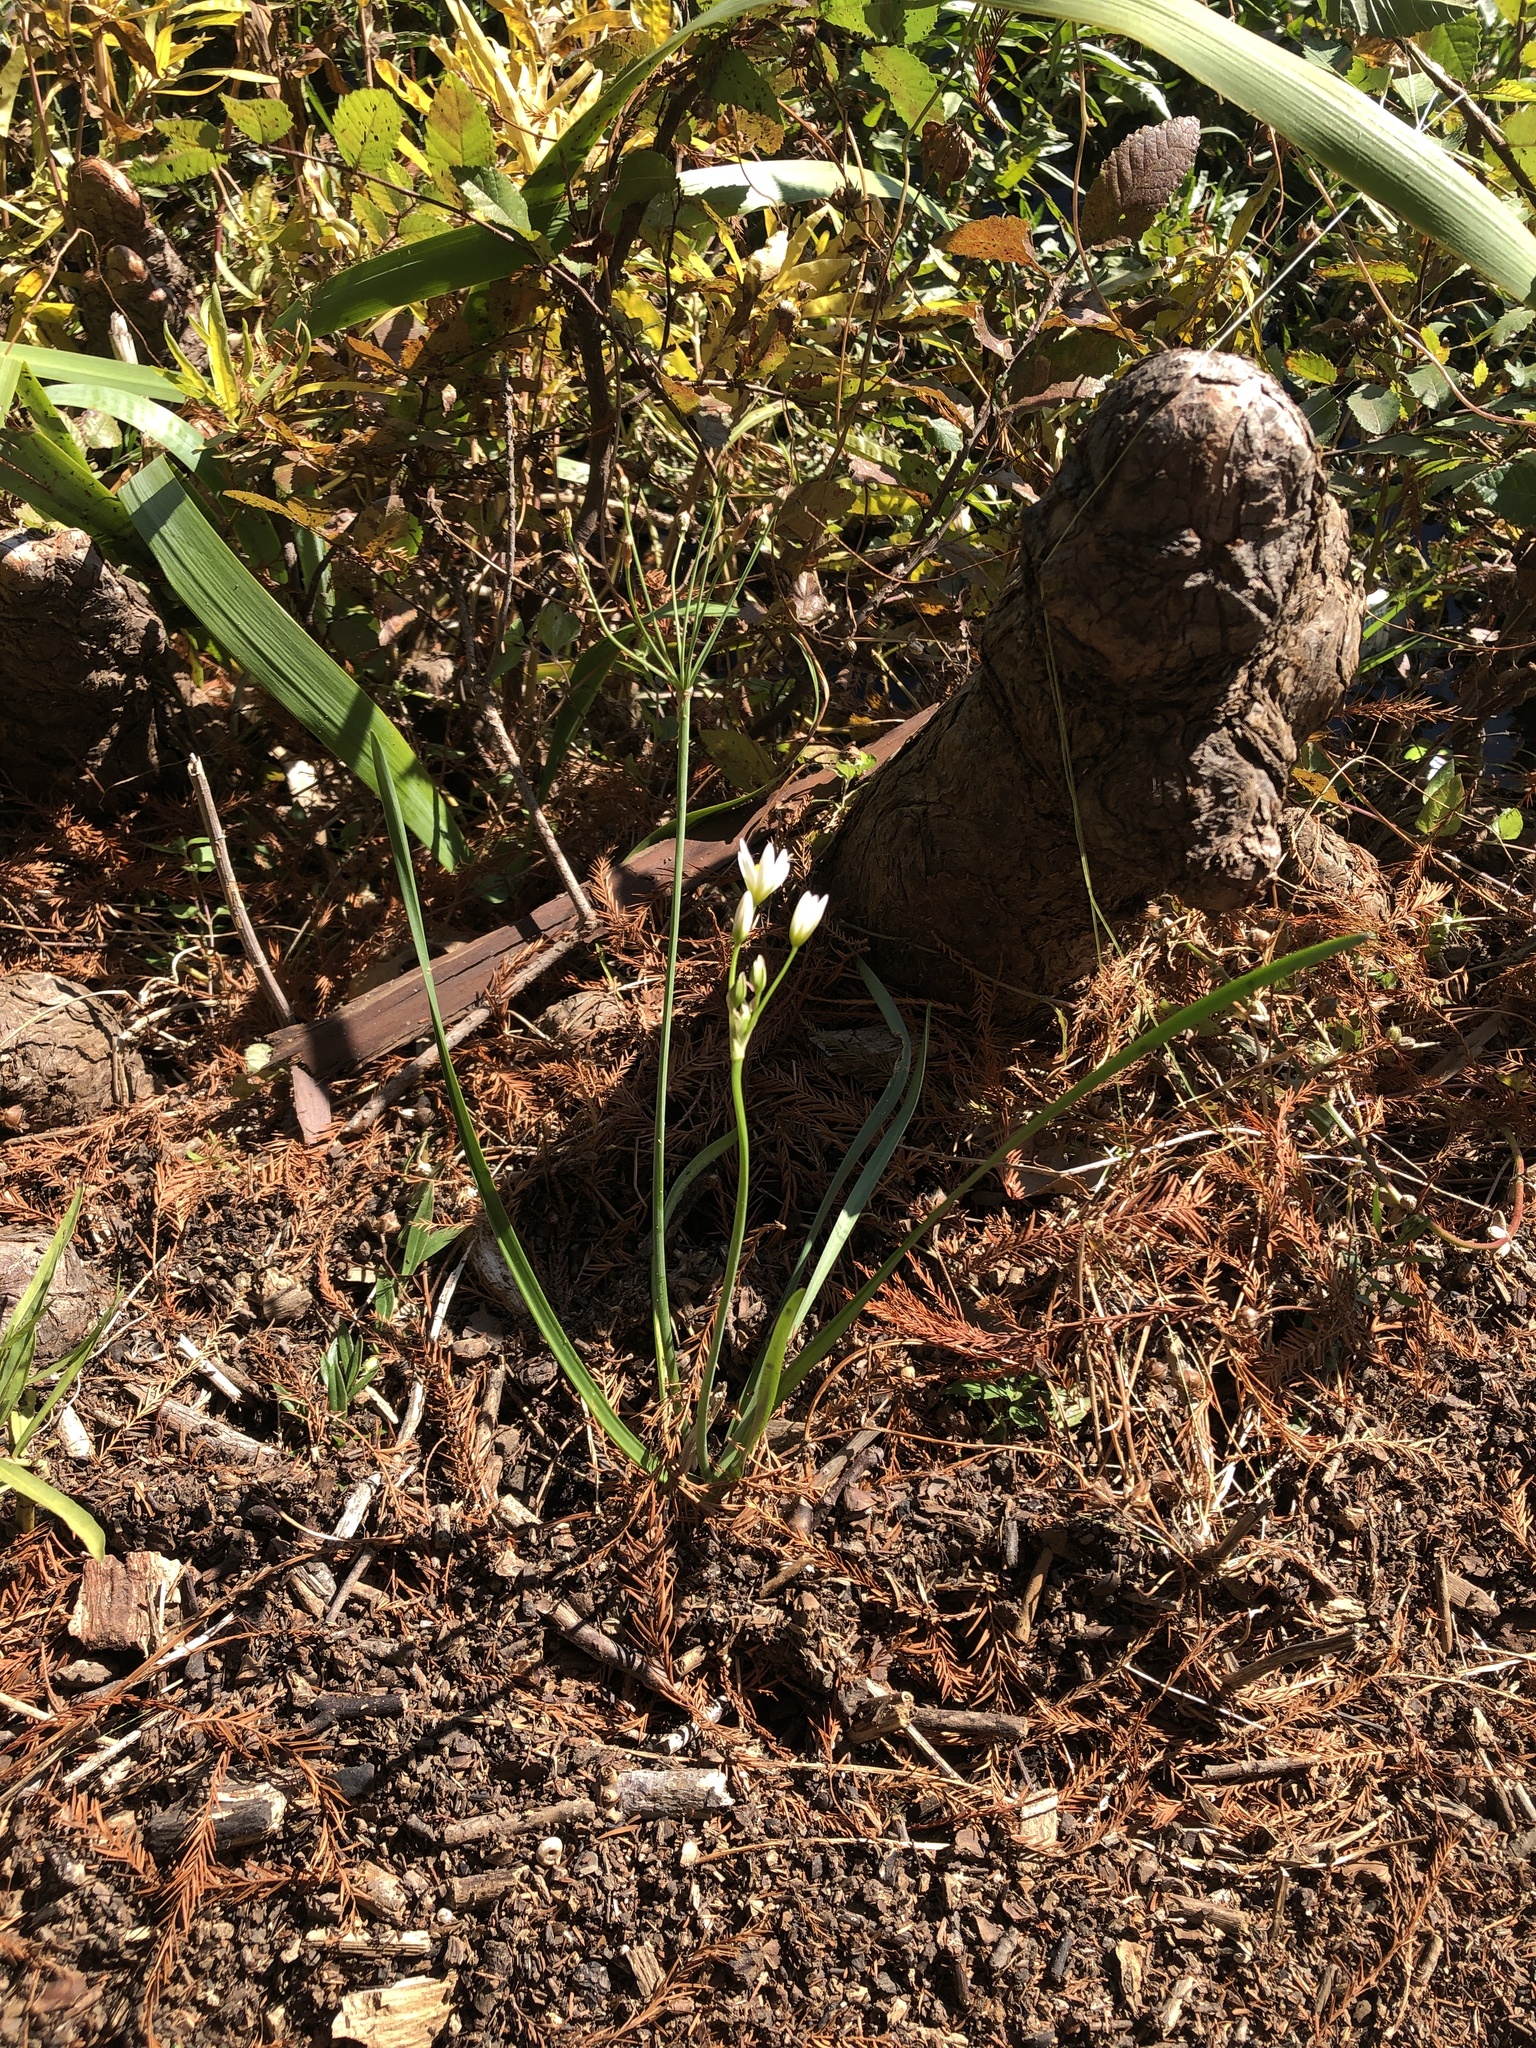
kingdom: Plantae
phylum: Tracheophyta
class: Liliopsida
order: Asparagales
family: Amaryllidaceae
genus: Nothoscordum
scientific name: Nothoscordum bivalve
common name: Crow-poison
